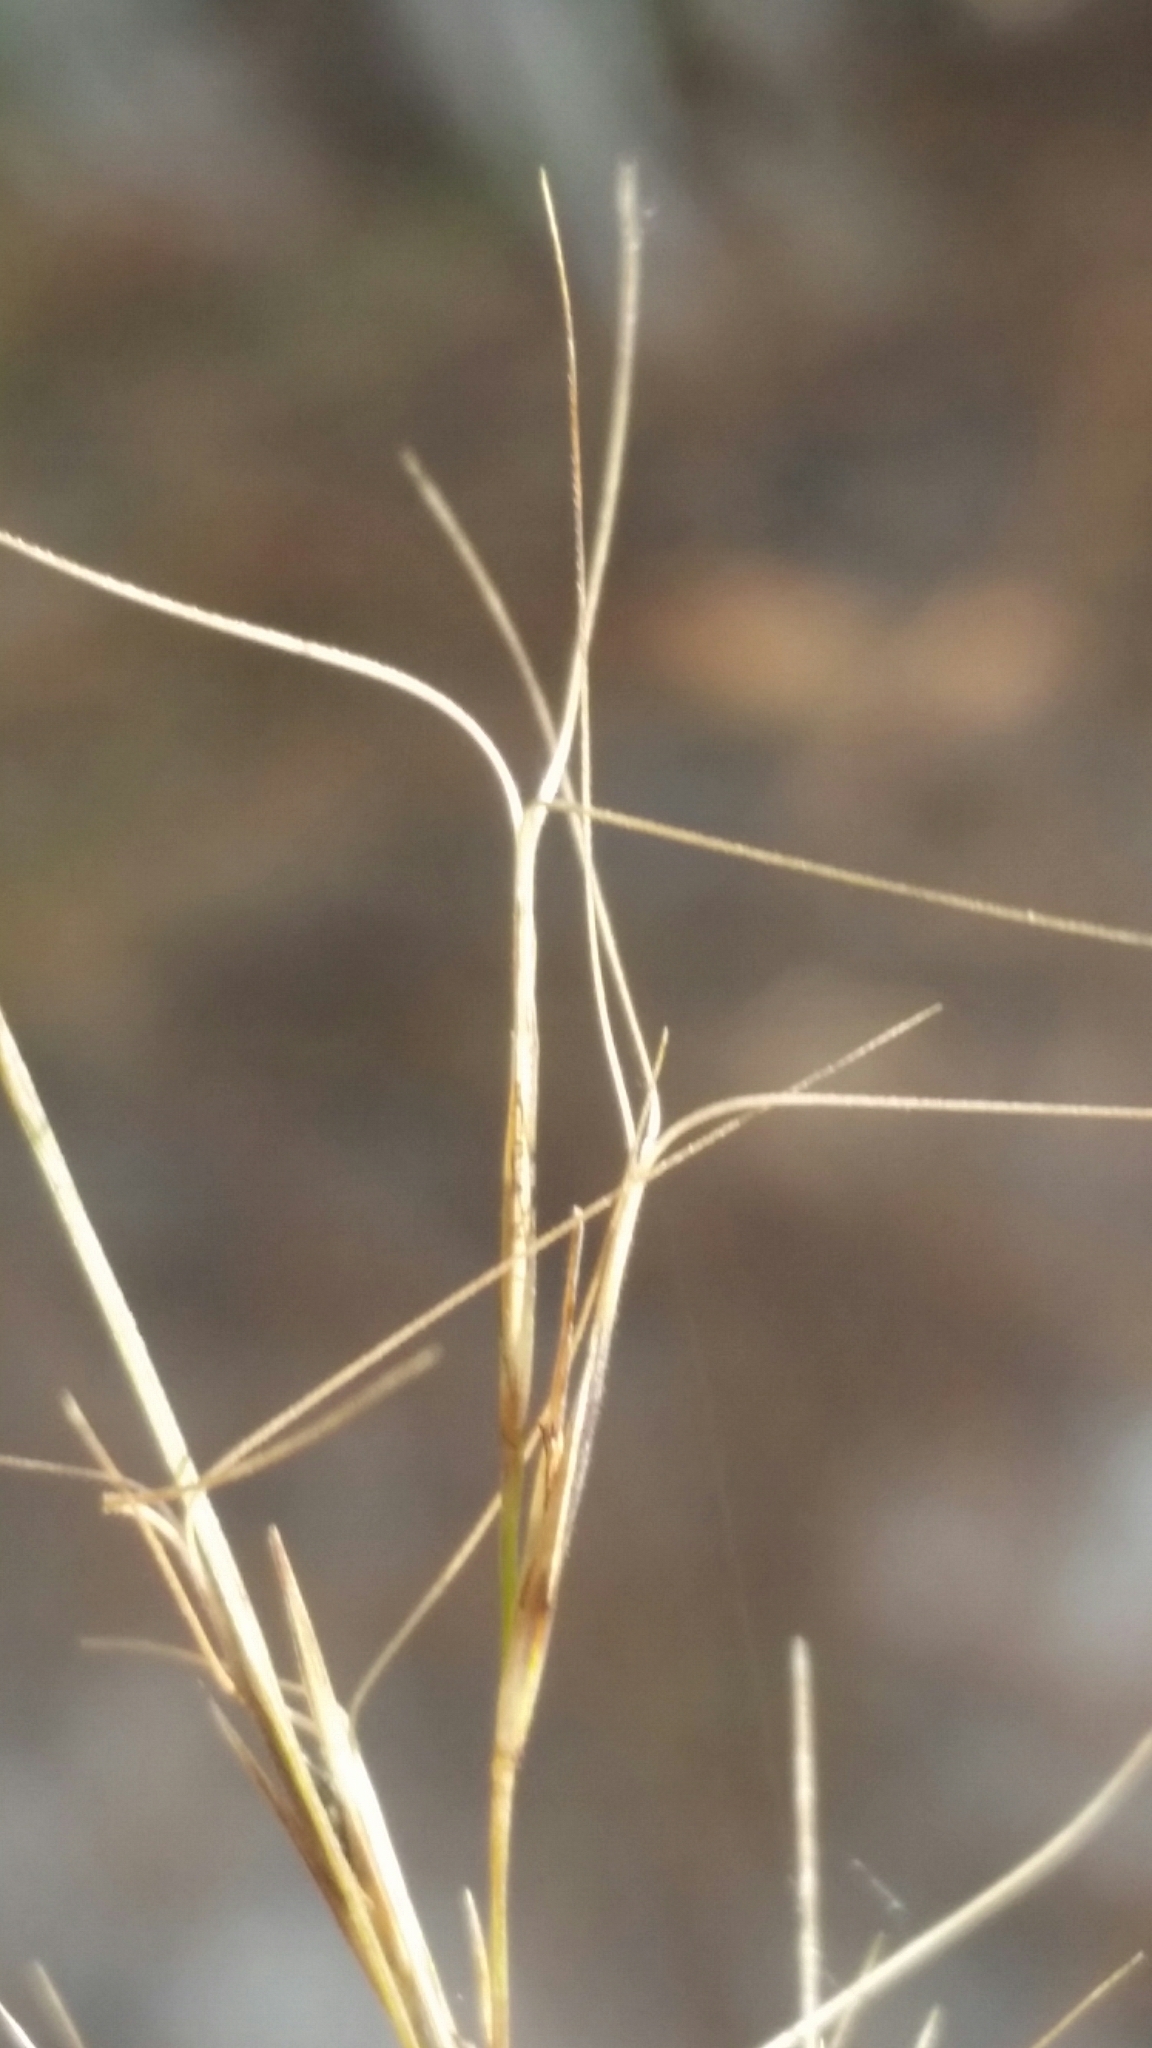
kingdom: Plantae
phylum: Tracheophyta
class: Liliopsida
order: Poales
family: Poaceae
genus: Aristida
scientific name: Aristida purpurascens
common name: Arrow-feather
